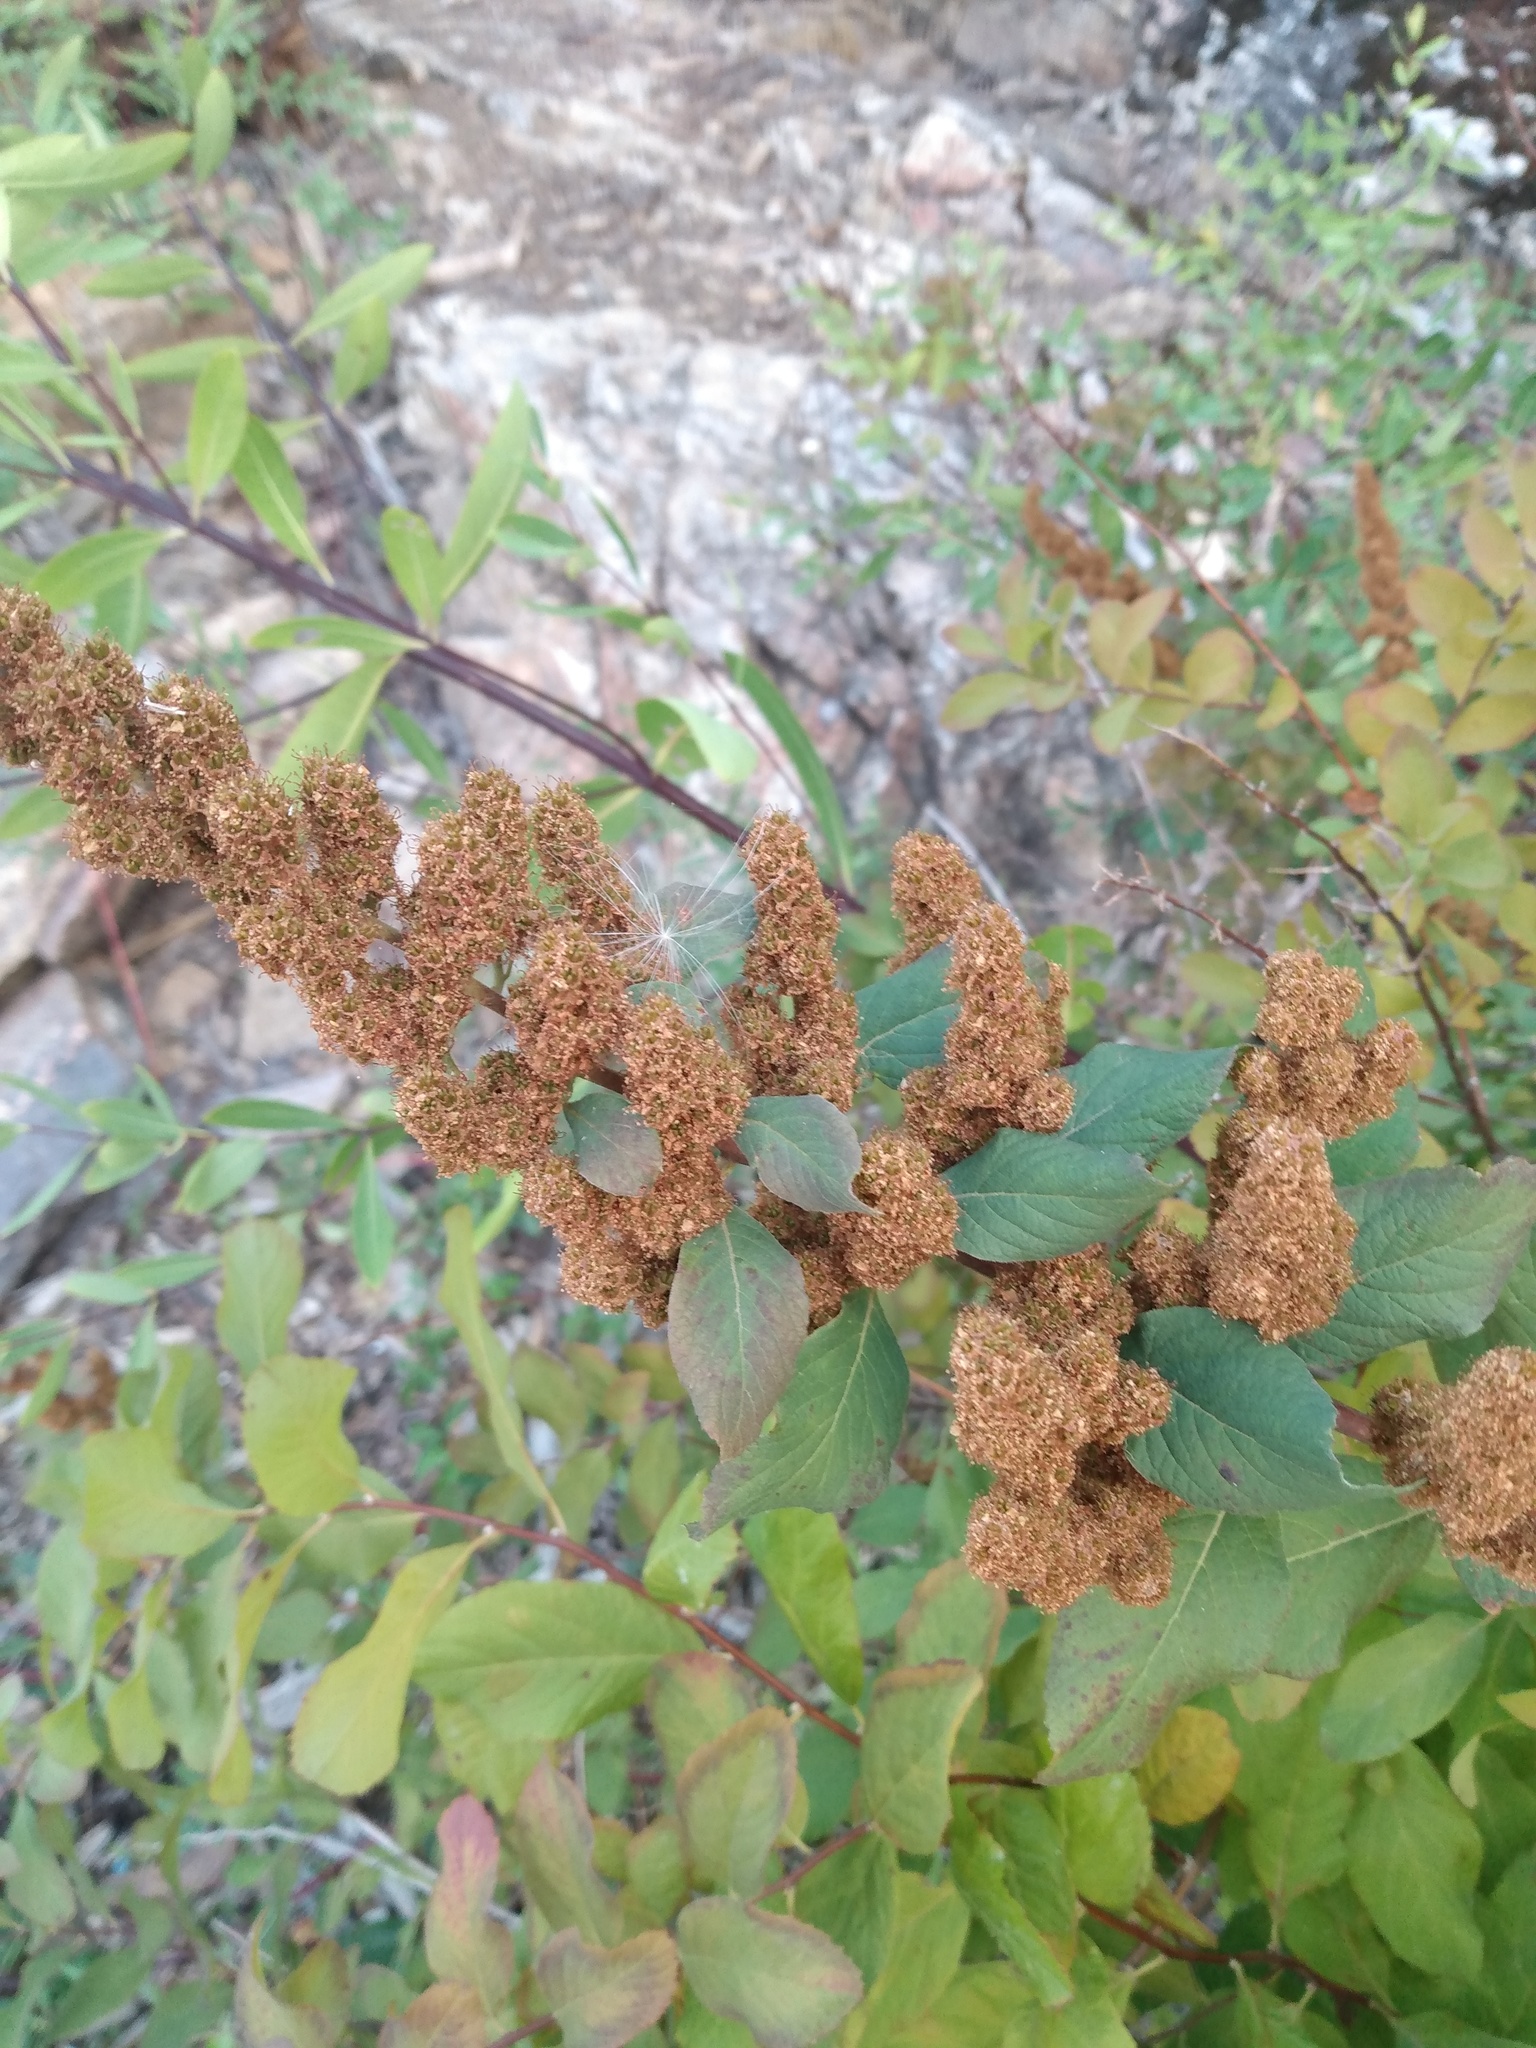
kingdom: Plantae
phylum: Tracheophyta
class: Magnoliopsida
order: Rosales
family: Rosaceae
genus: Spiraea
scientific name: Spiraea douglasii
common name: Steeplebush
